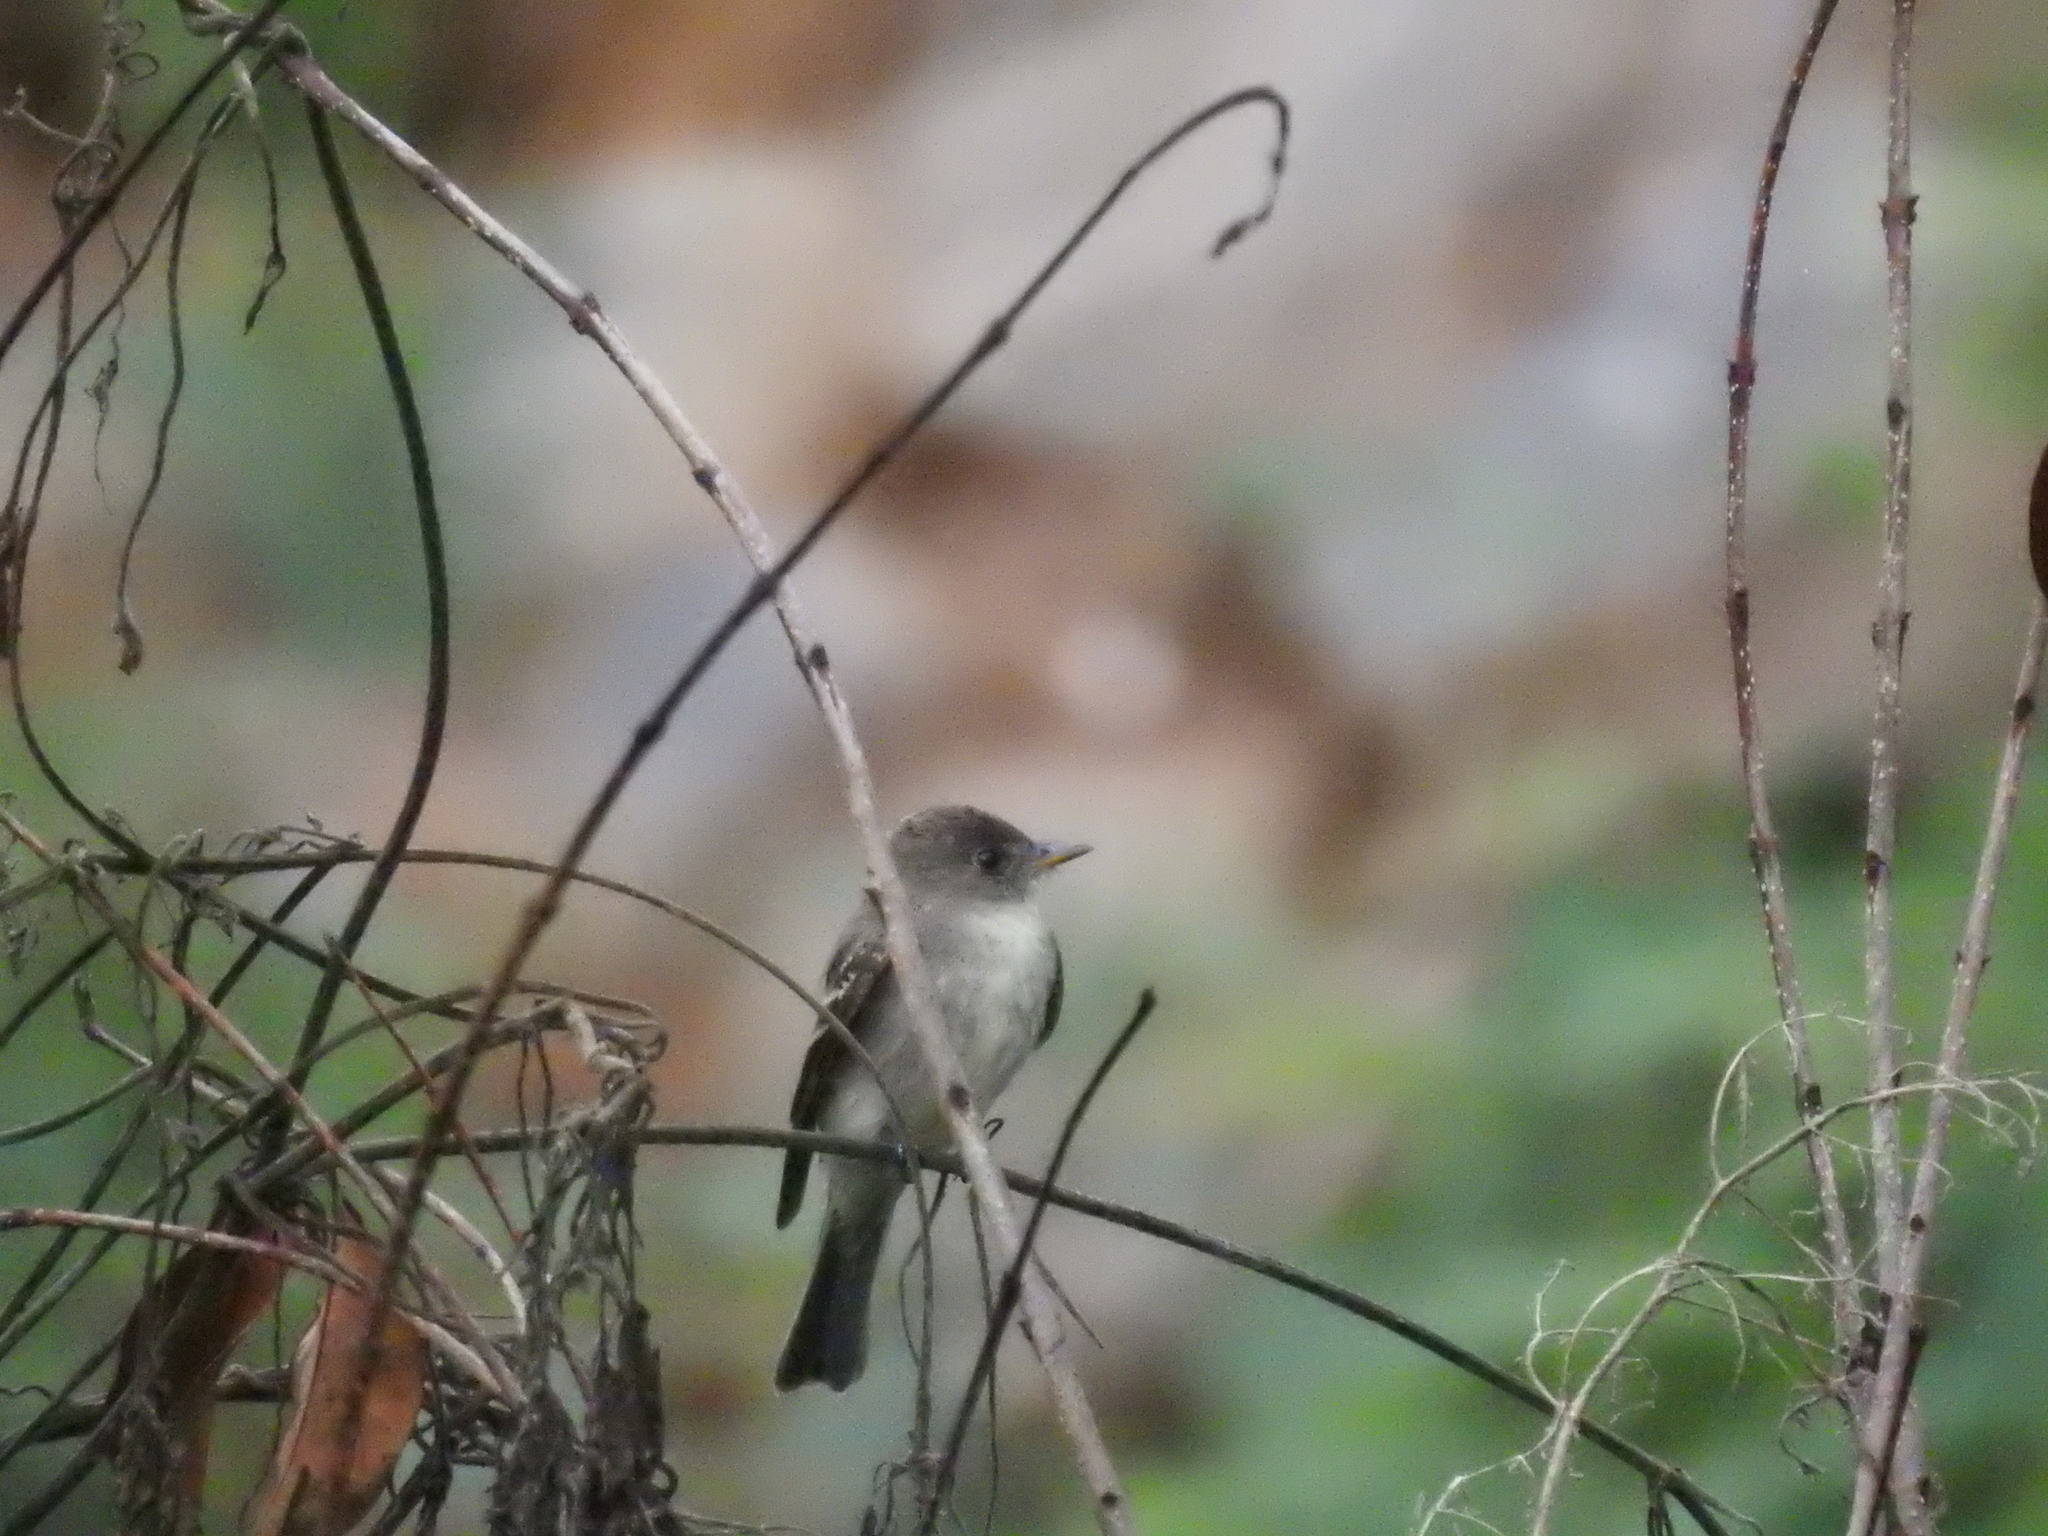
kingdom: Animalia
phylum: Chordata
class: Aves
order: Passeriformes
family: Tyrannidae
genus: Contopus
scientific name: Contopus virens
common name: Eastern wood-pewee
